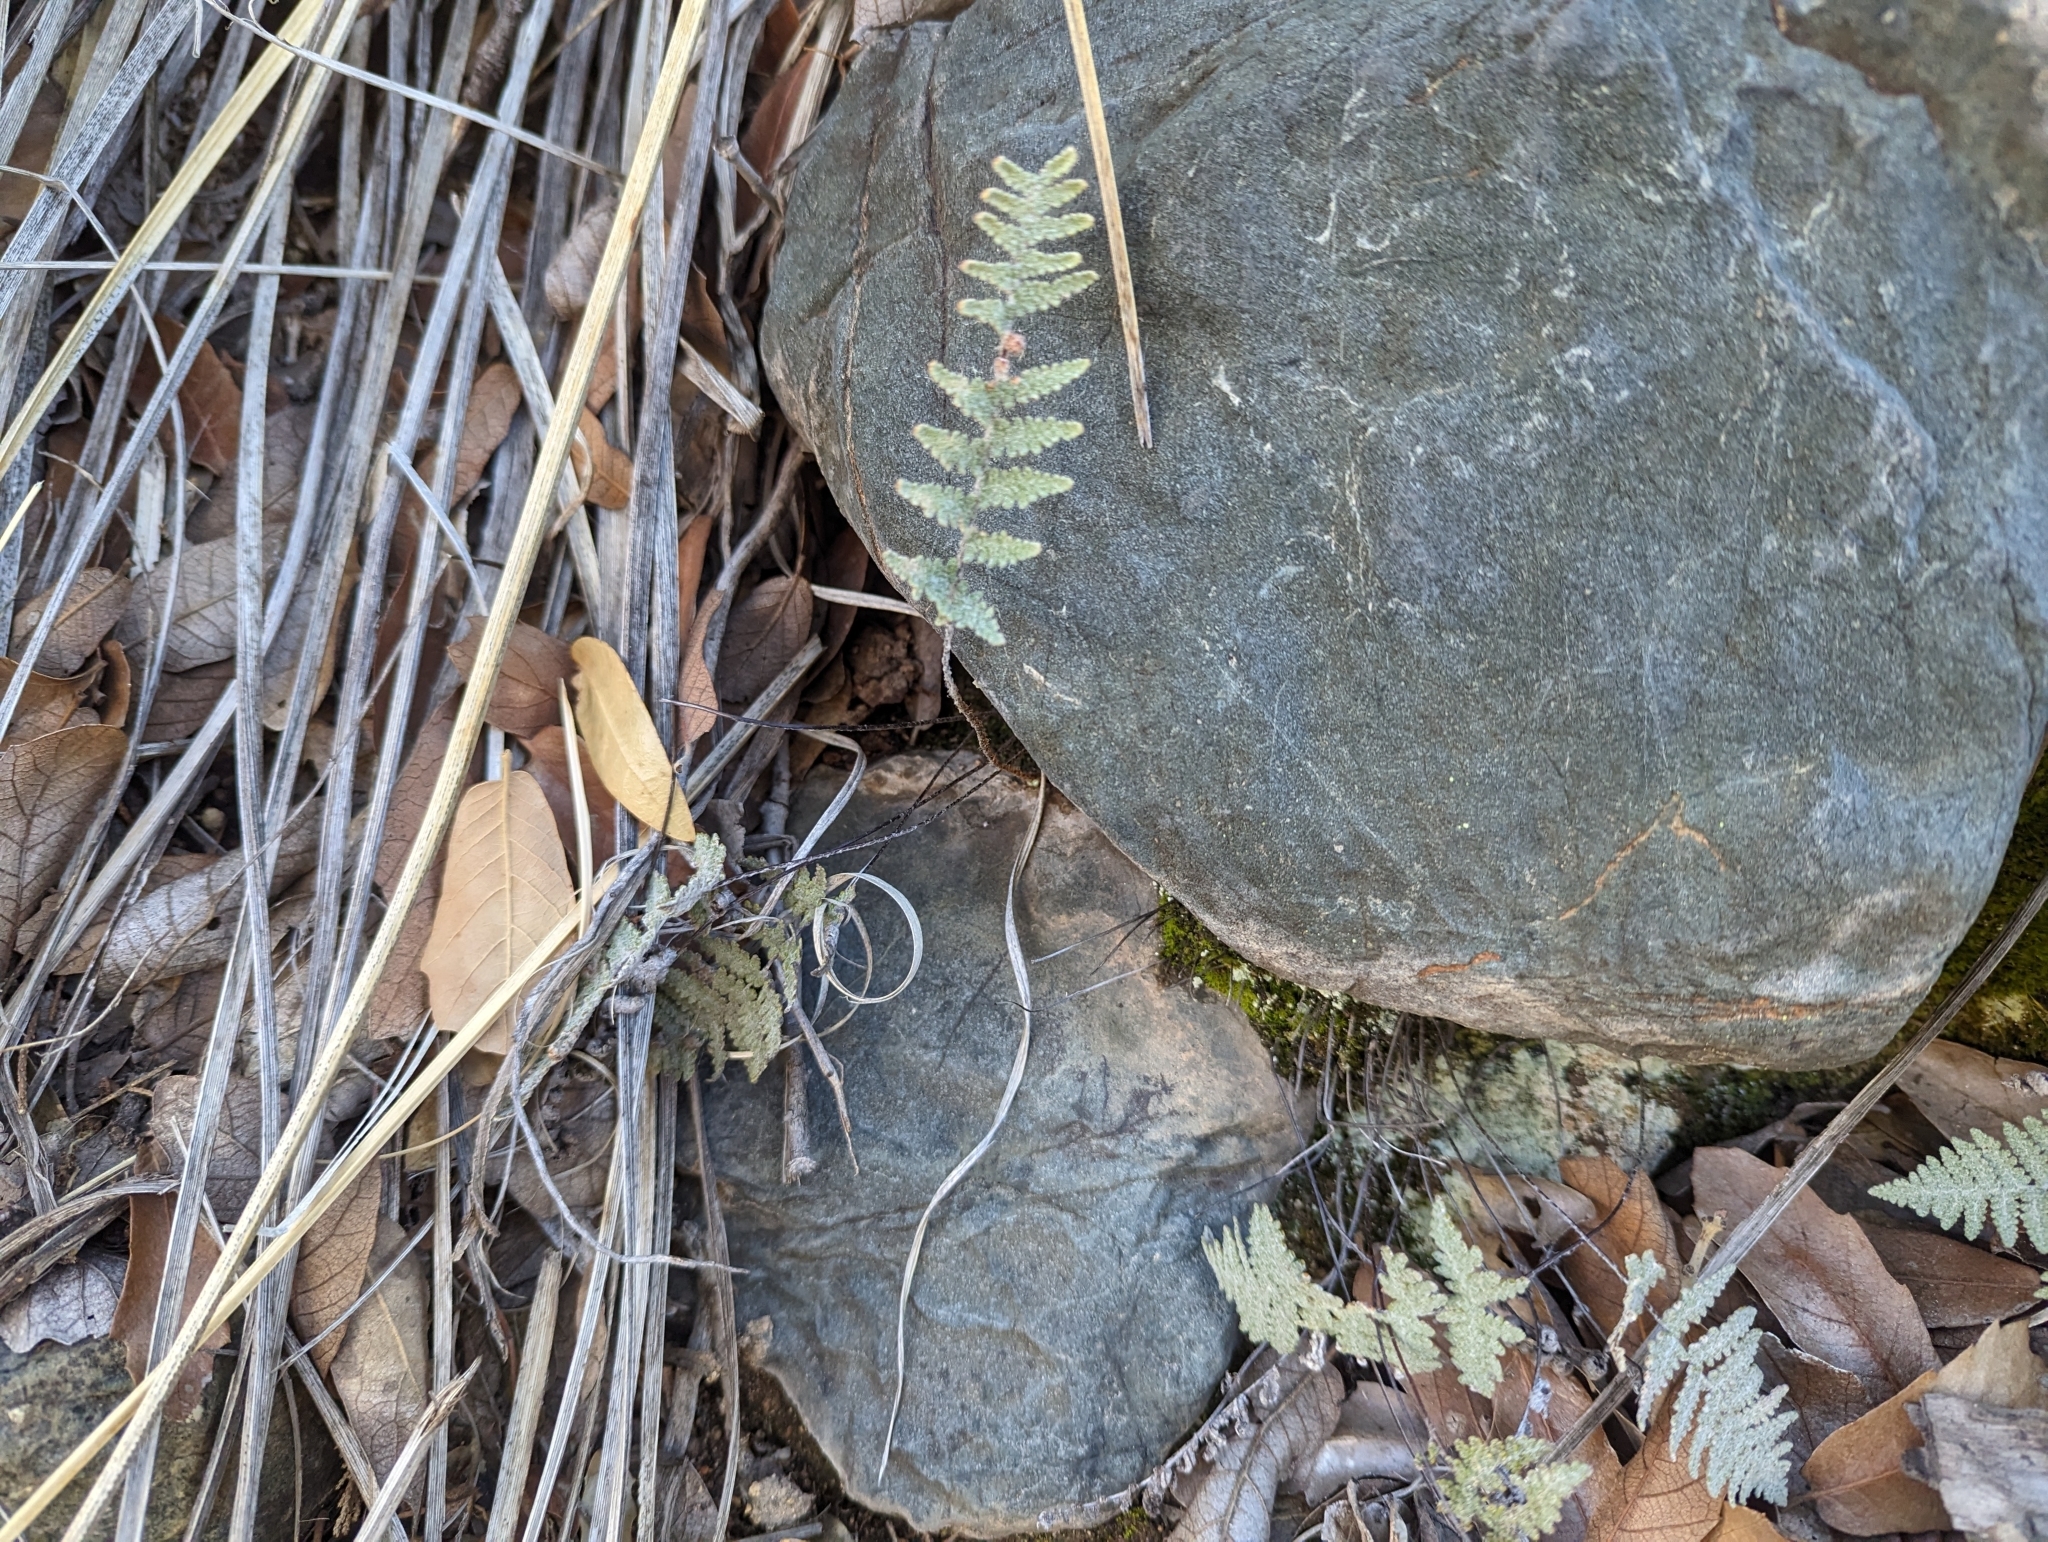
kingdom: Plantae
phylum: Tracheophyta
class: Polypodiopsida
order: Polypodiales
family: Pteridaceae
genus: Myriopteris
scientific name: Myriopteris lindheimeri
